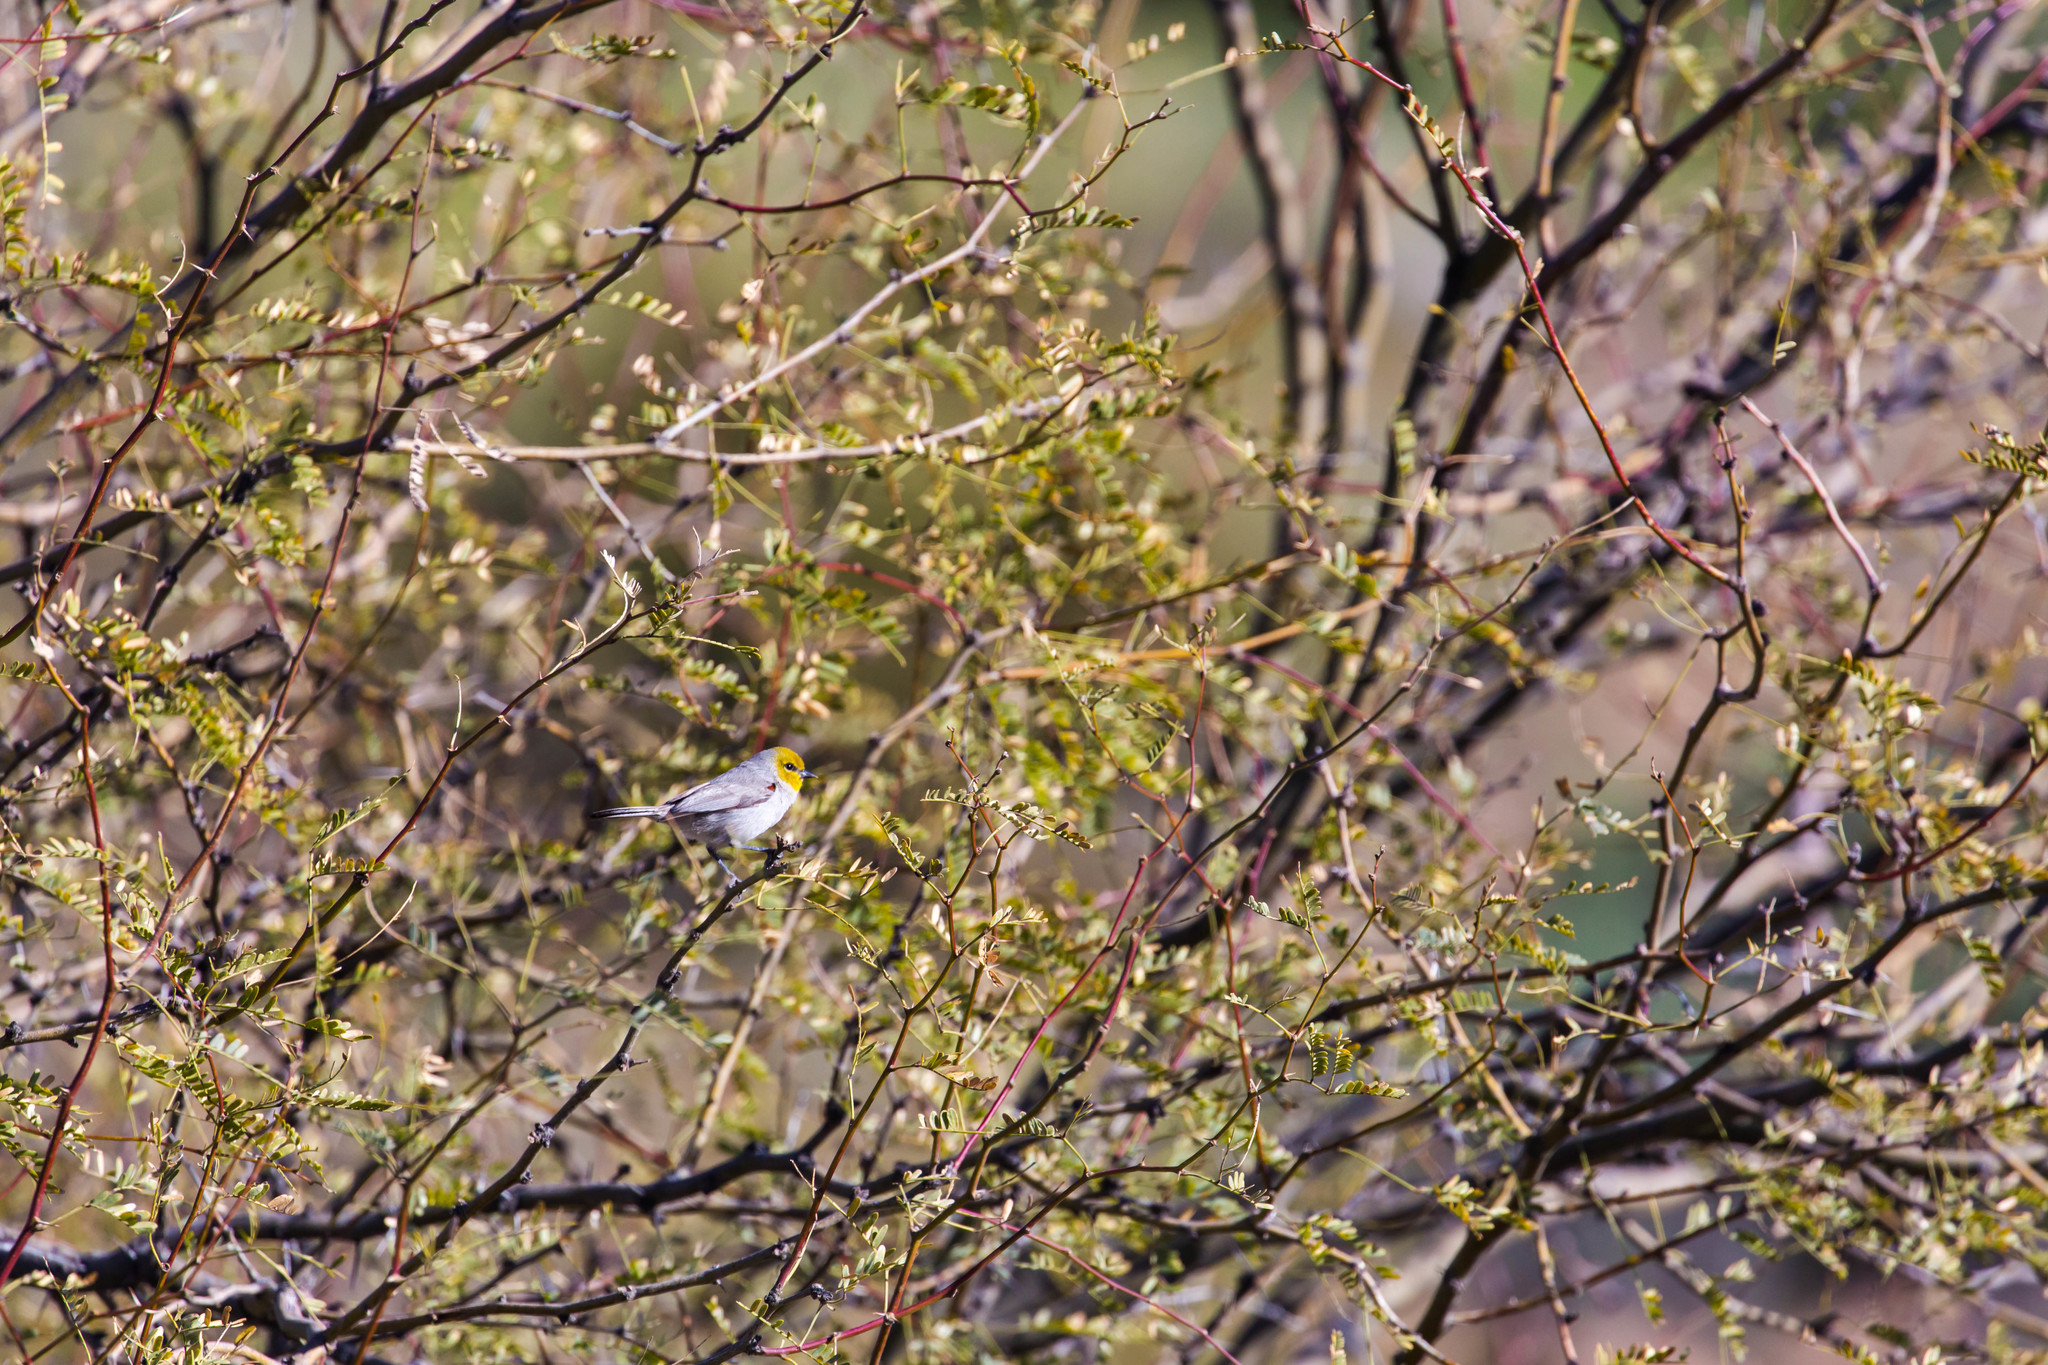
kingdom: Animalia
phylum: Chordata
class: Aves
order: Passeriformes
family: Remizidae
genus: Auriparus
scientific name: Auriparus flaviceps
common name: Verdin
